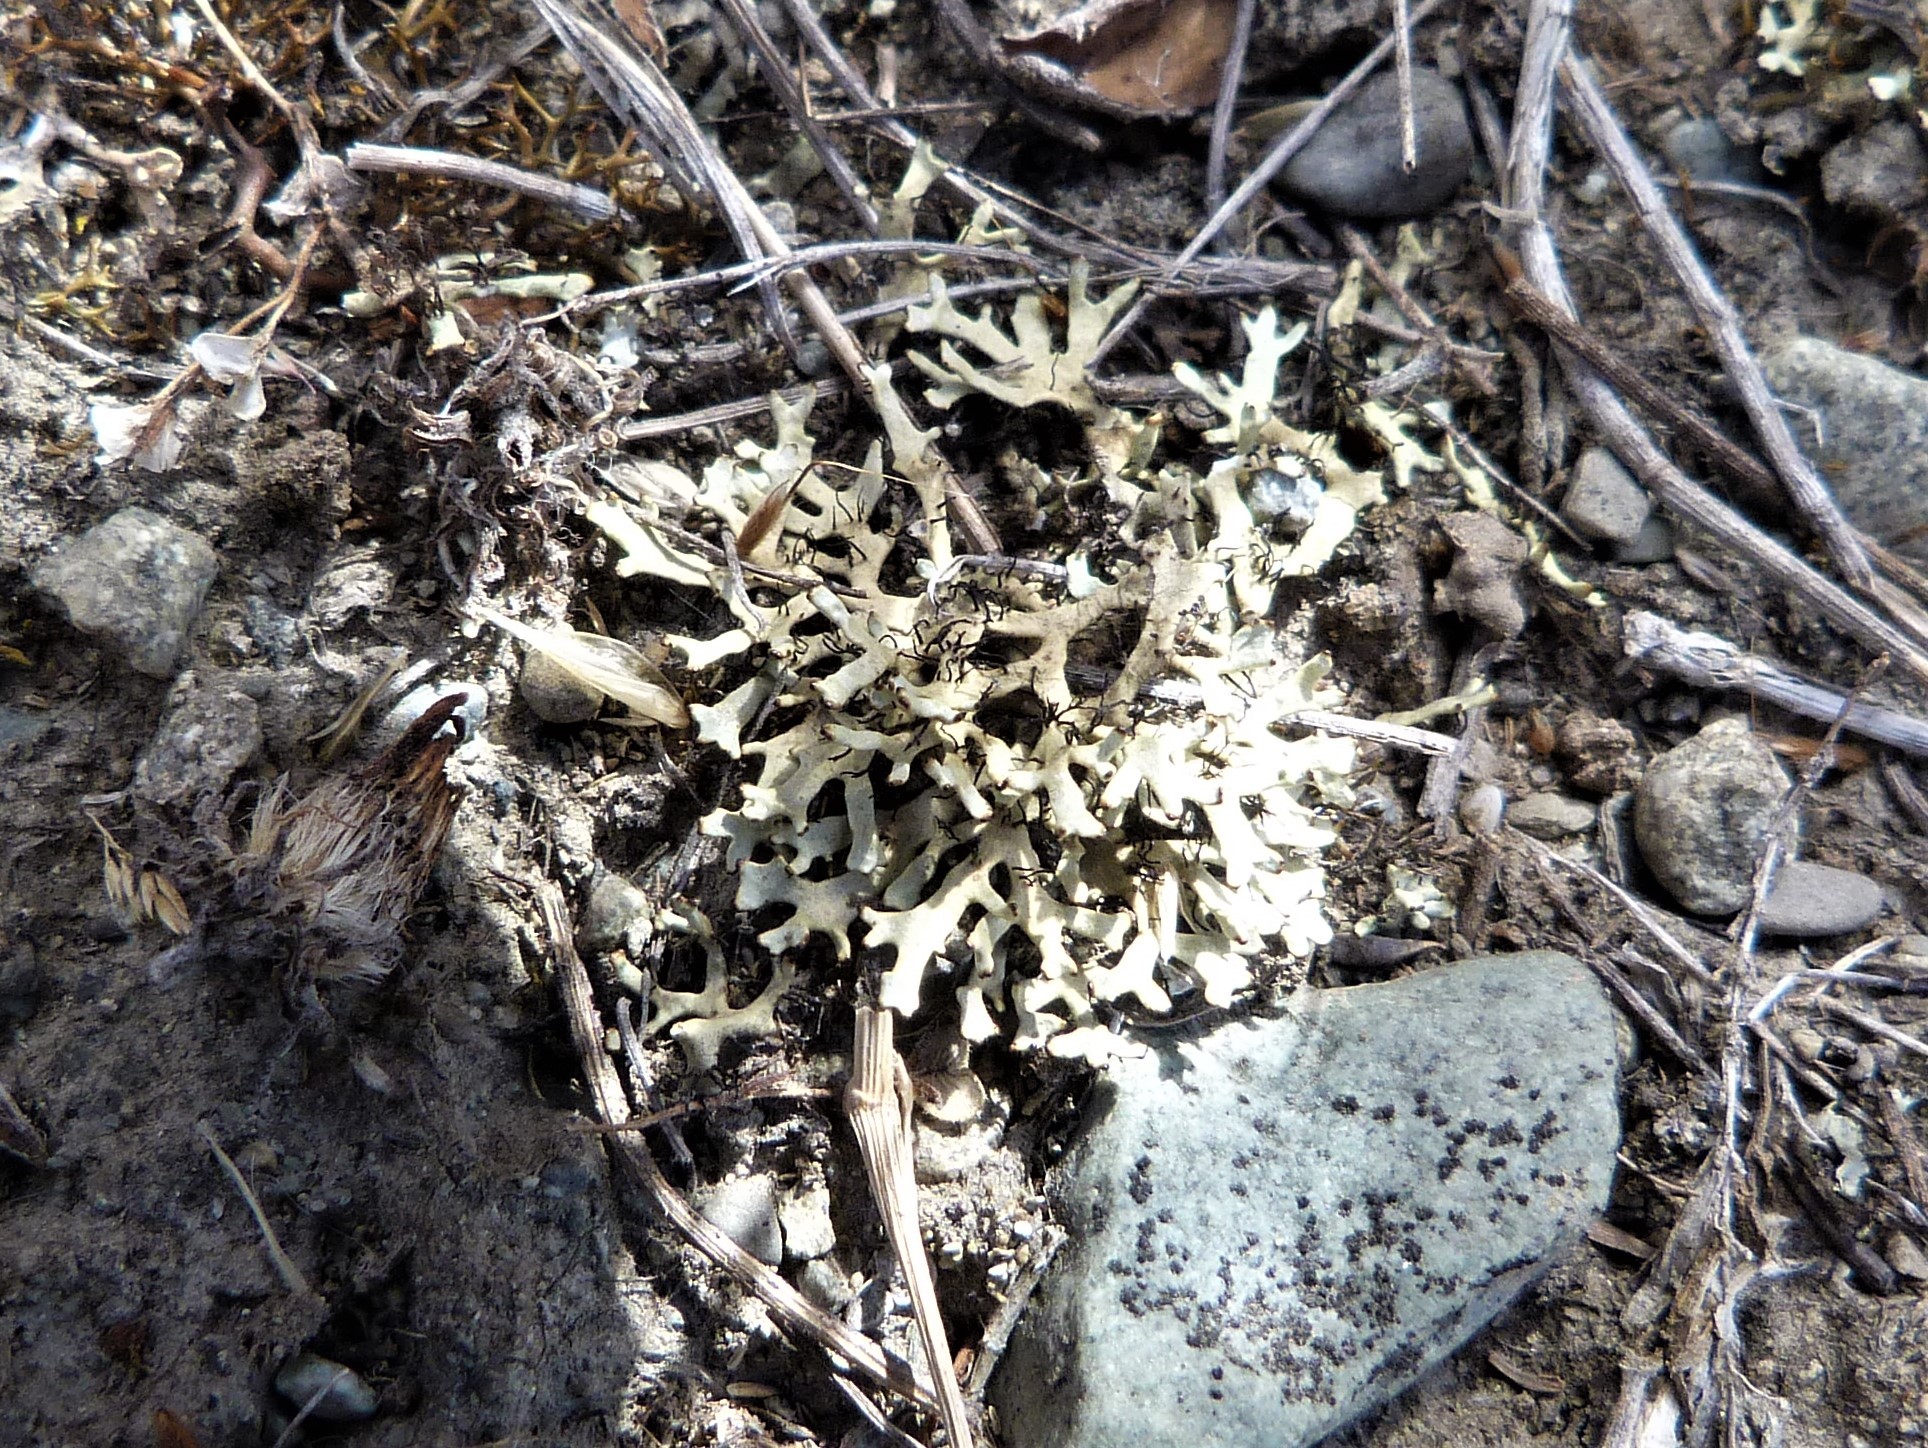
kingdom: Fungi
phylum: Ascomycota
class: Lecanoromycetes
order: Lecanorales
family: Parmeliaceae
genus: Xanthoparmelia
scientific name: Xanthoparmelia reptans
